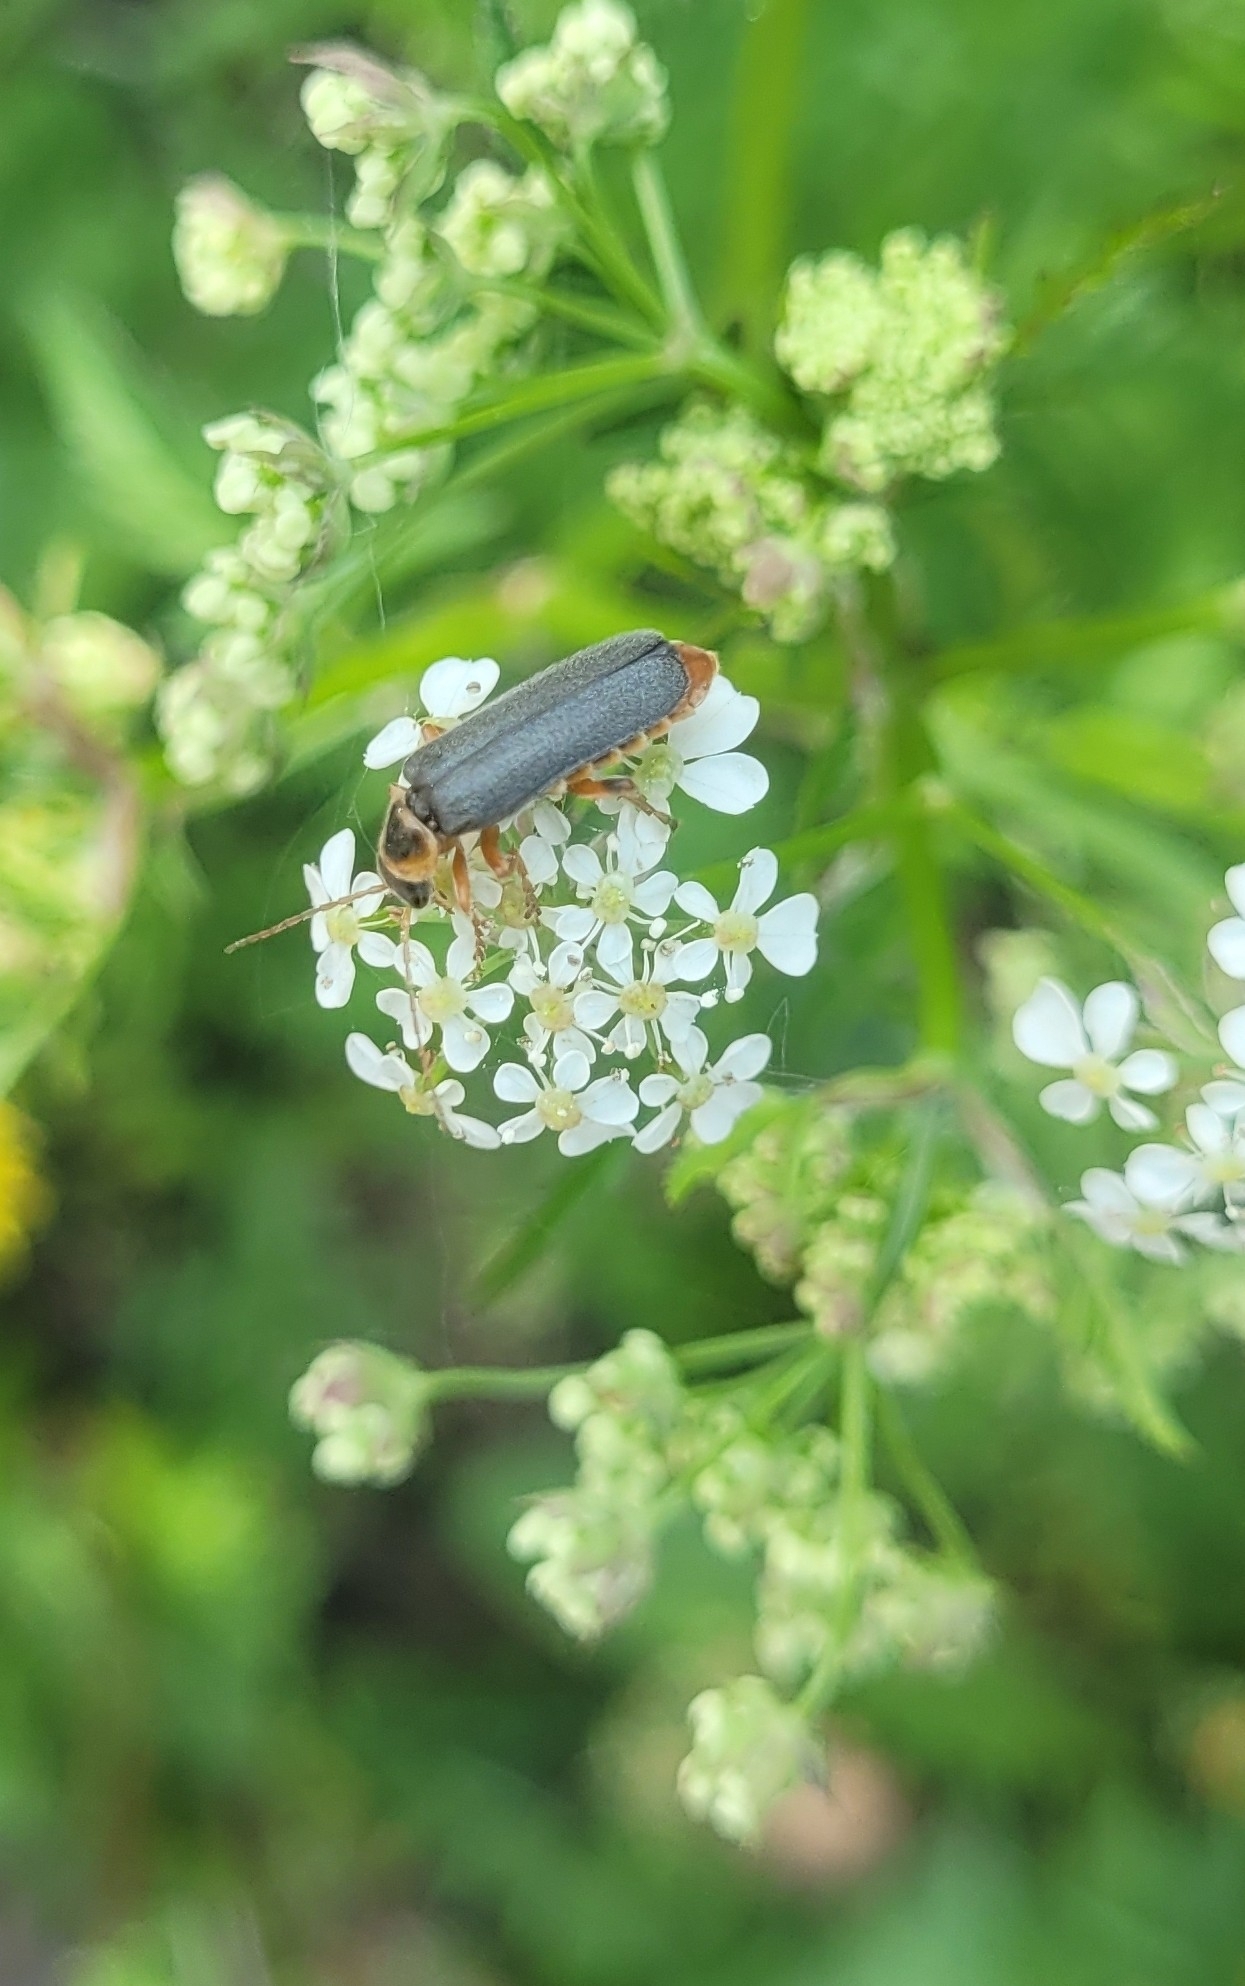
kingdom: Animalia
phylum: Arthropoda
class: Insecta
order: Coleoptera
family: Cantharidae
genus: Cantharis
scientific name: Cantharis nigricans
